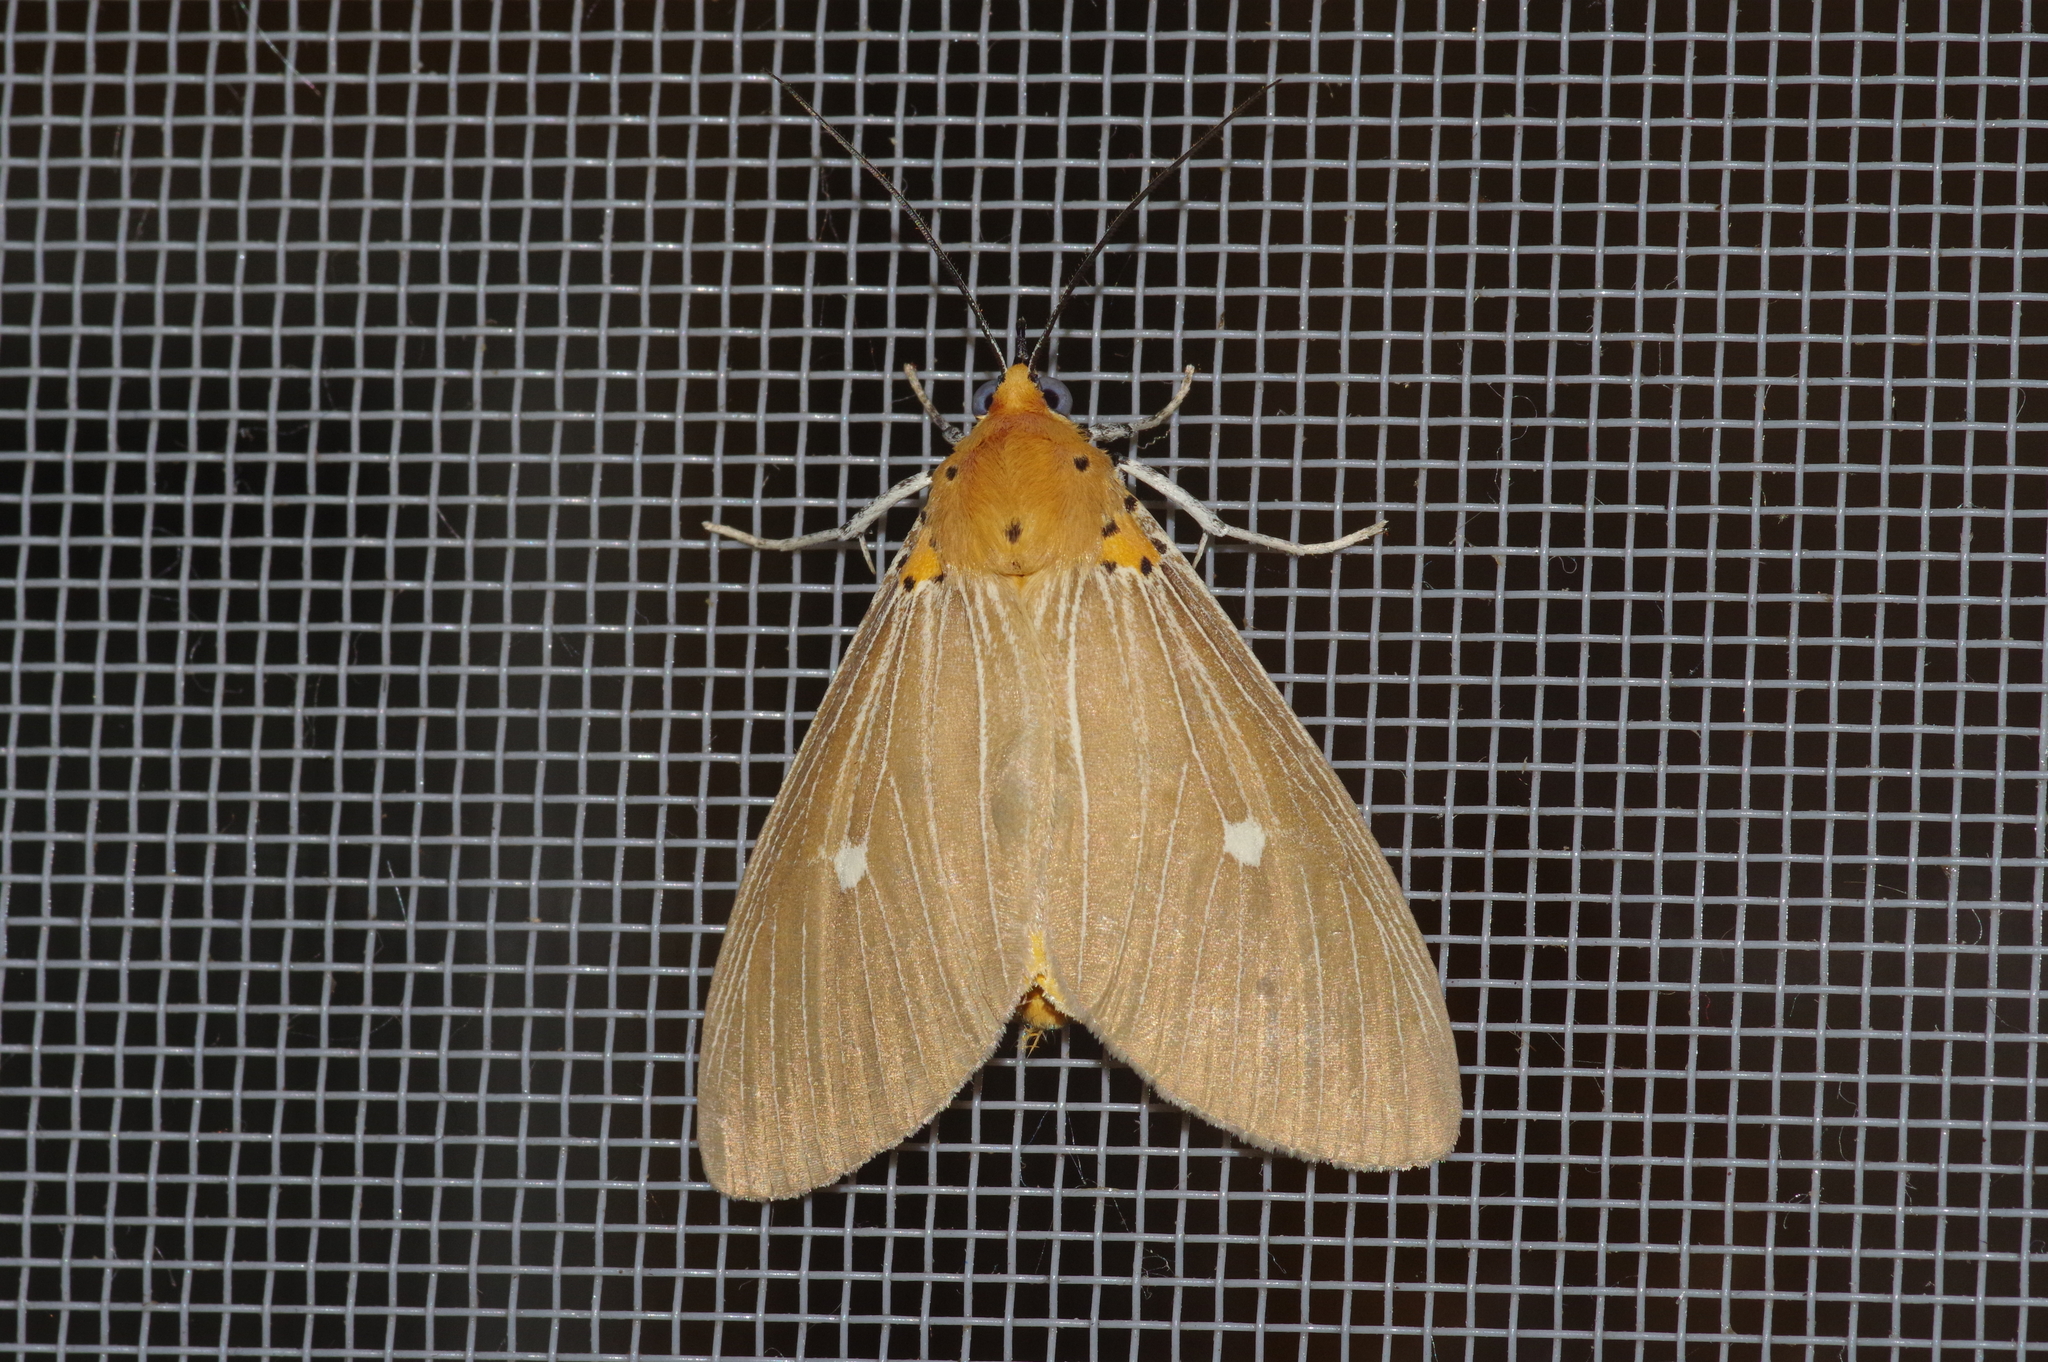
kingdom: Animalia
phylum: Arthropoda
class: Insecta
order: Lepidoptera
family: Erebidae
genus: Asota
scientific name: Asota caricae
